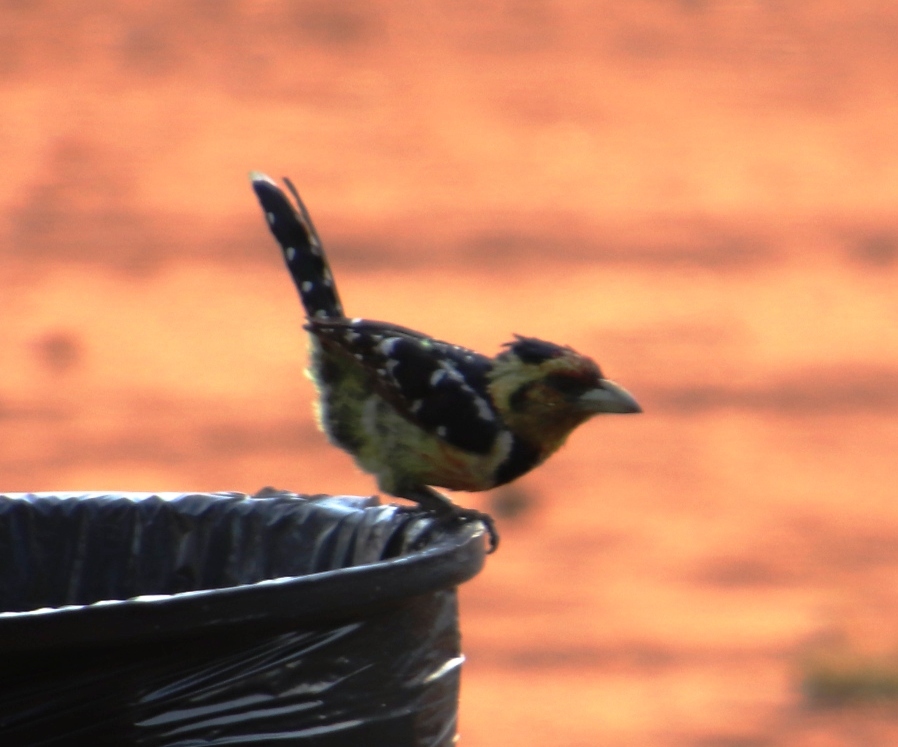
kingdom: Animalia
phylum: Chordata
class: Aves
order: Piciformes
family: Lybiidae
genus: Trachyphonus
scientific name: Trachyphonus vaillantii
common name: Crested barbet
